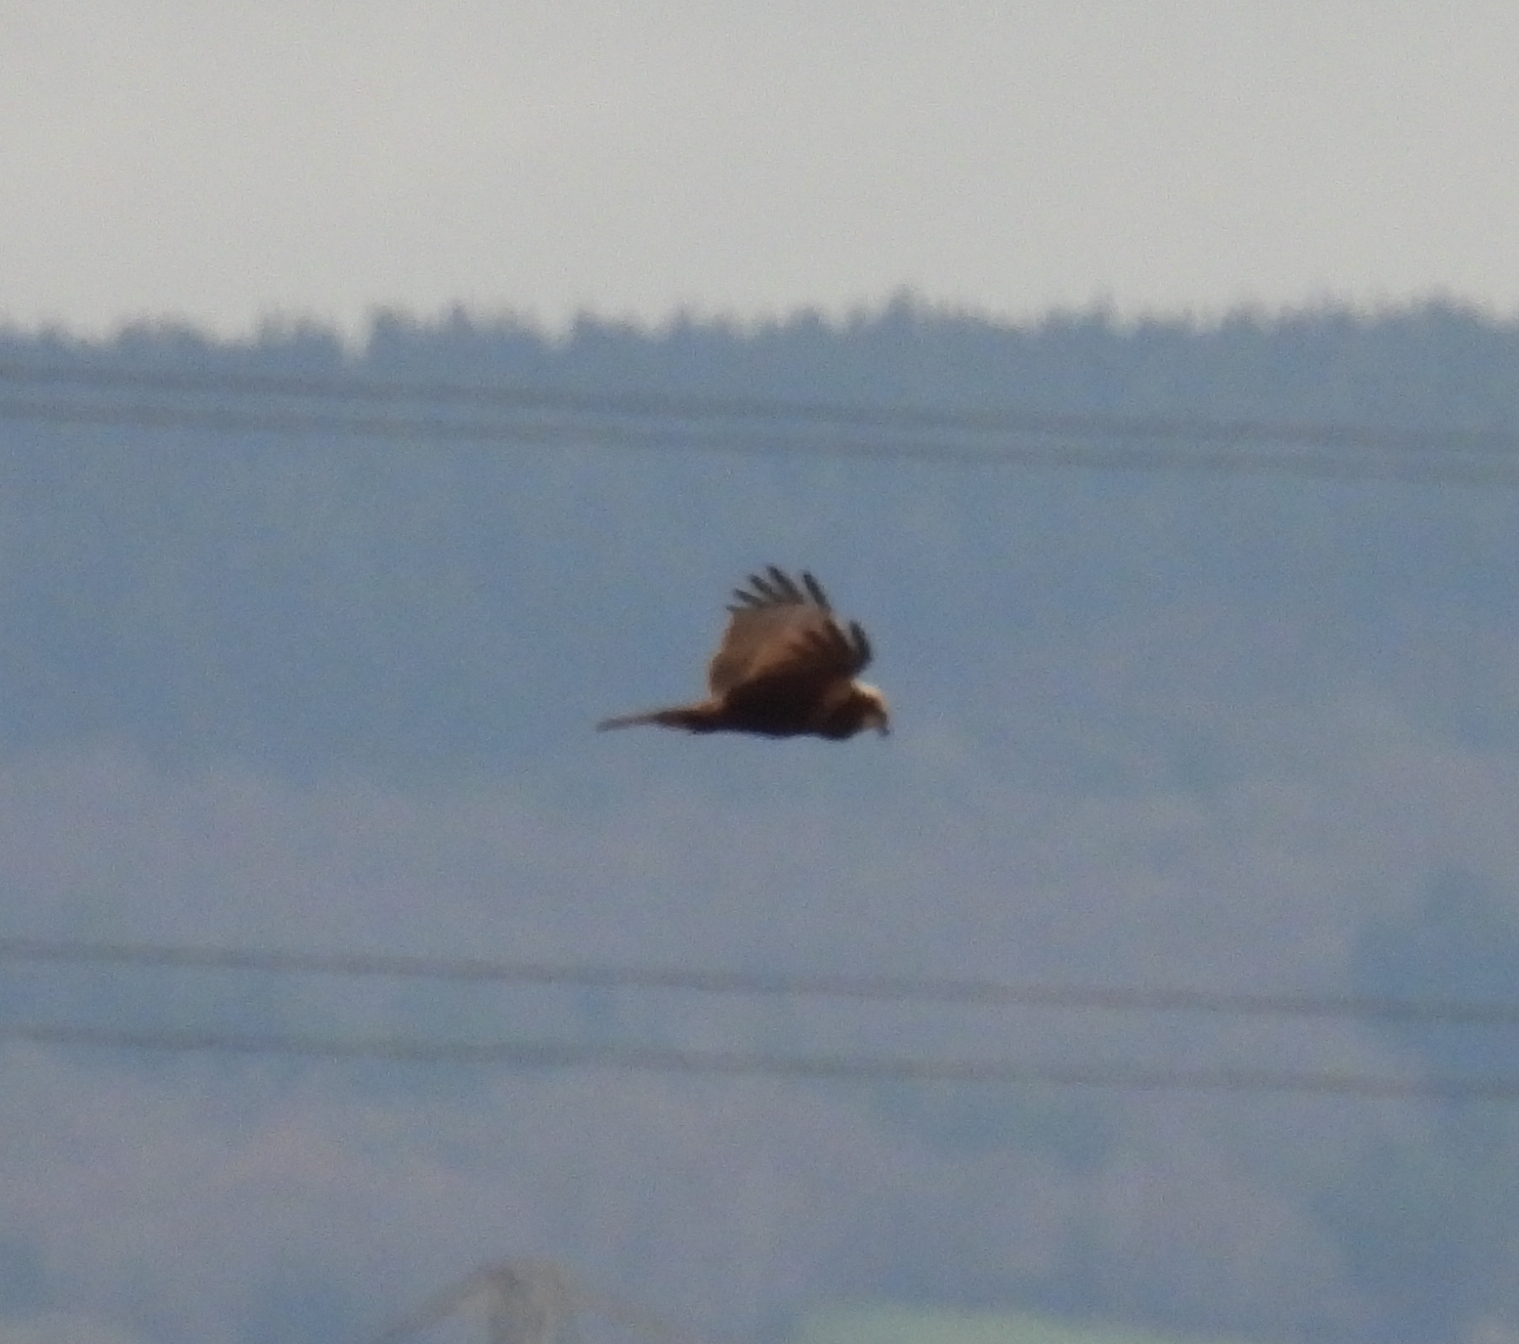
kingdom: Animalia
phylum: Chordata
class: Aves
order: Accipitriformes
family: Accipitridae
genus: Circus
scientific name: Circus aeruginosus
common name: Western marsh harrier
